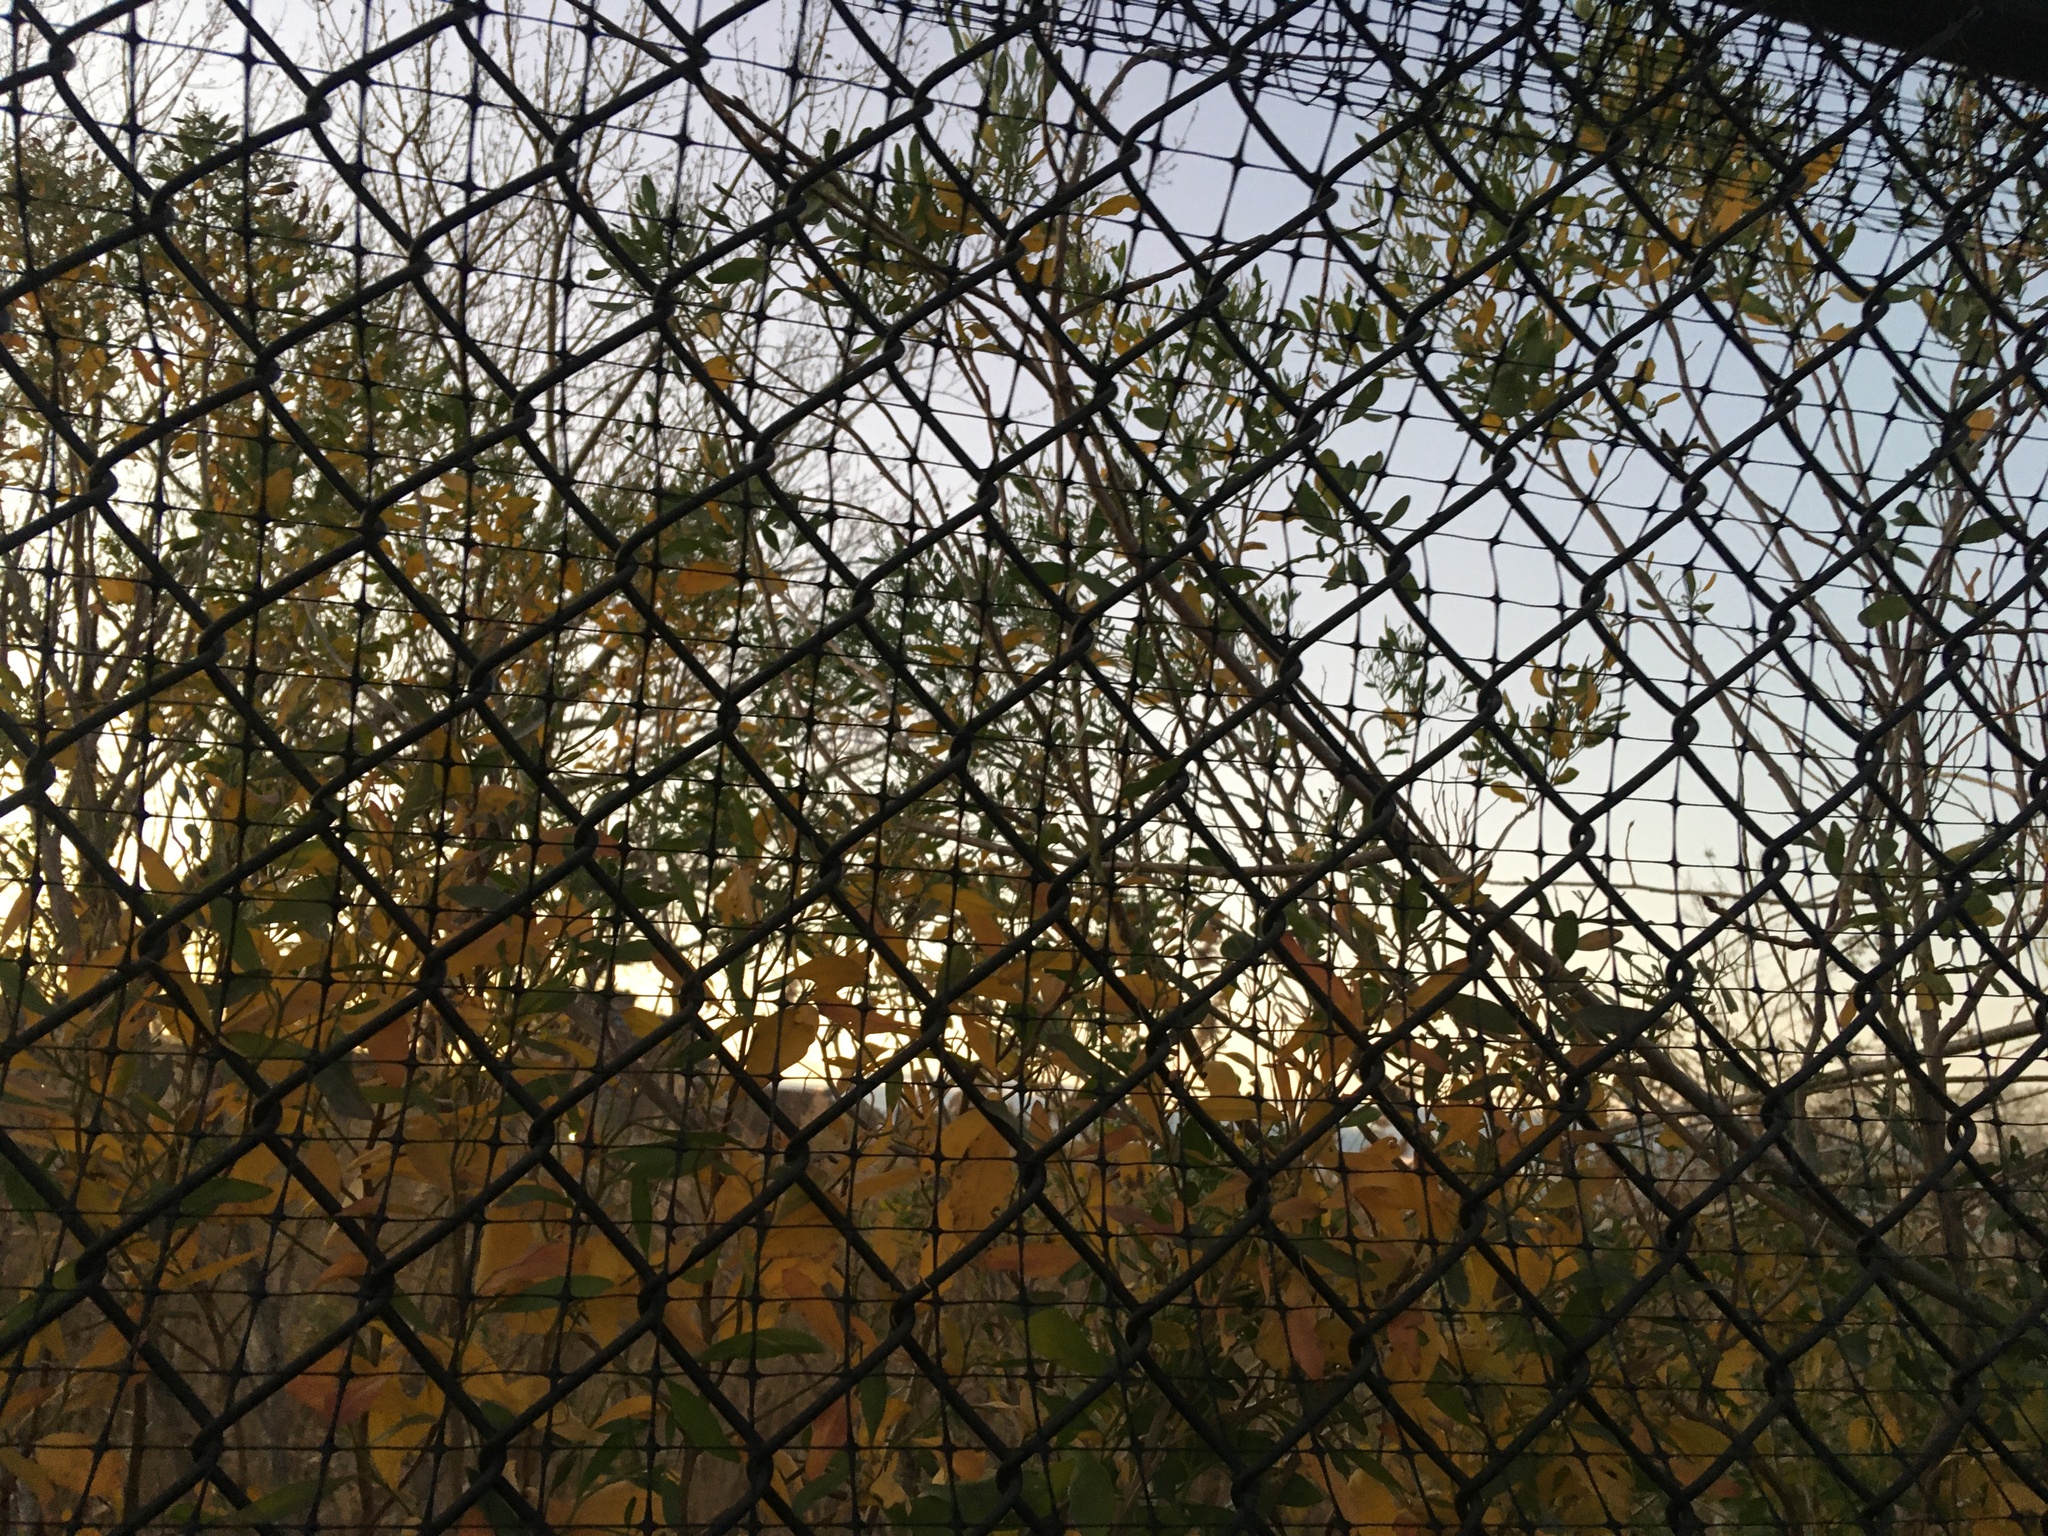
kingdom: Plantae
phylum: Tracheophyta
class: Magnoliopsida
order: Asterales
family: Asteraceae
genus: Baccharis
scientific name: Baccharis halimifolia
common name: Eastern baccharis
